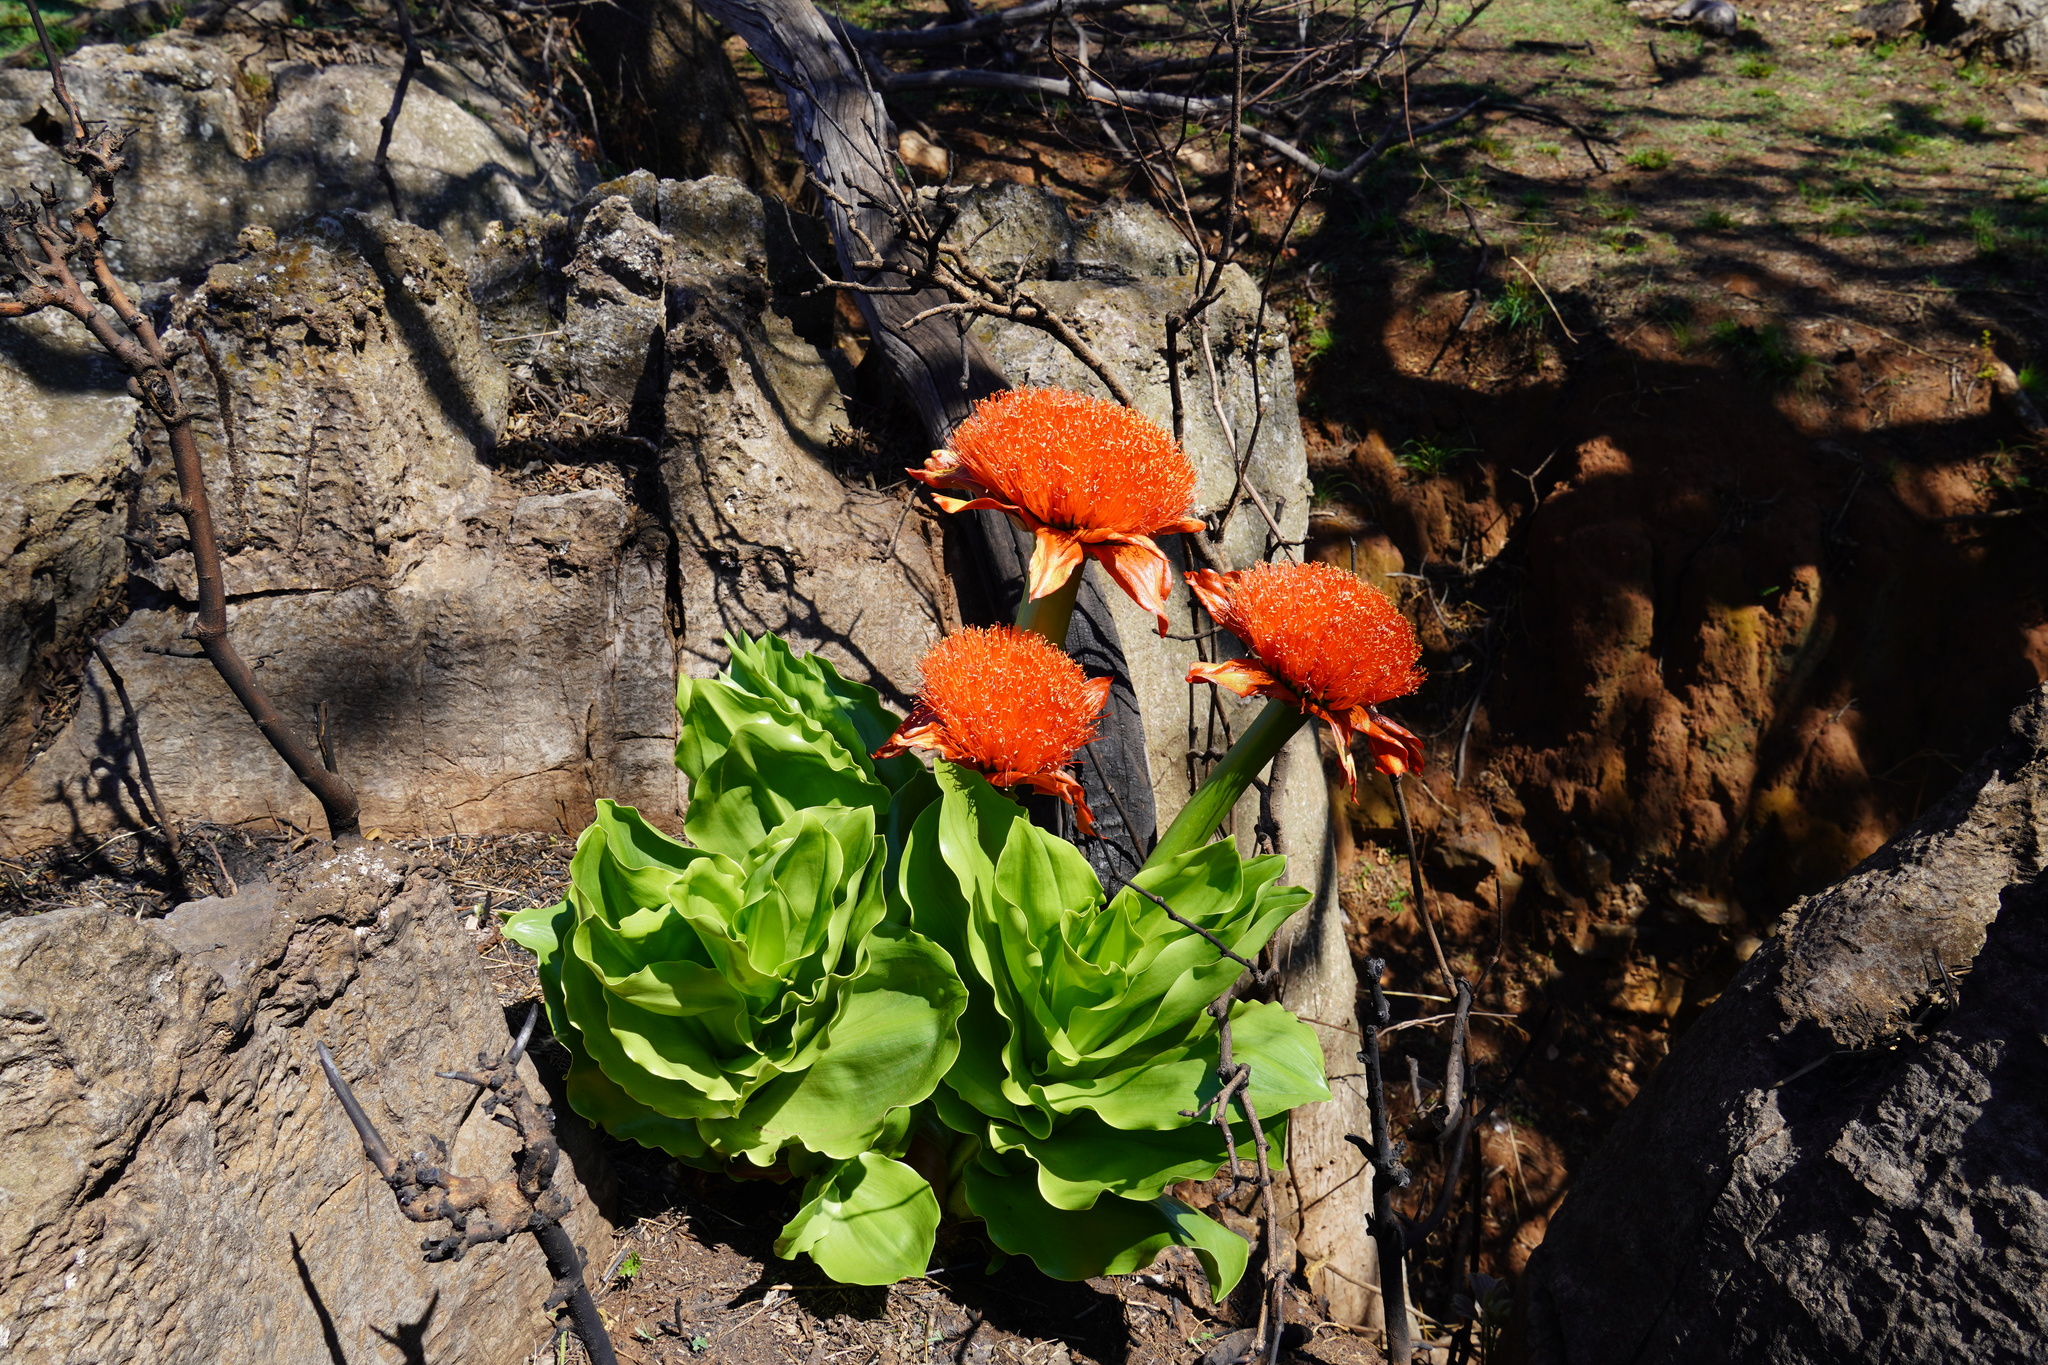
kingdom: Plantae
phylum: Tracheophyta
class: Liliopsida
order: Asparagales
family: Amaryllidaceae
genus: Scadoxus
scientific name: Scadoxus puniceus
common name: Royal-paintbrush
